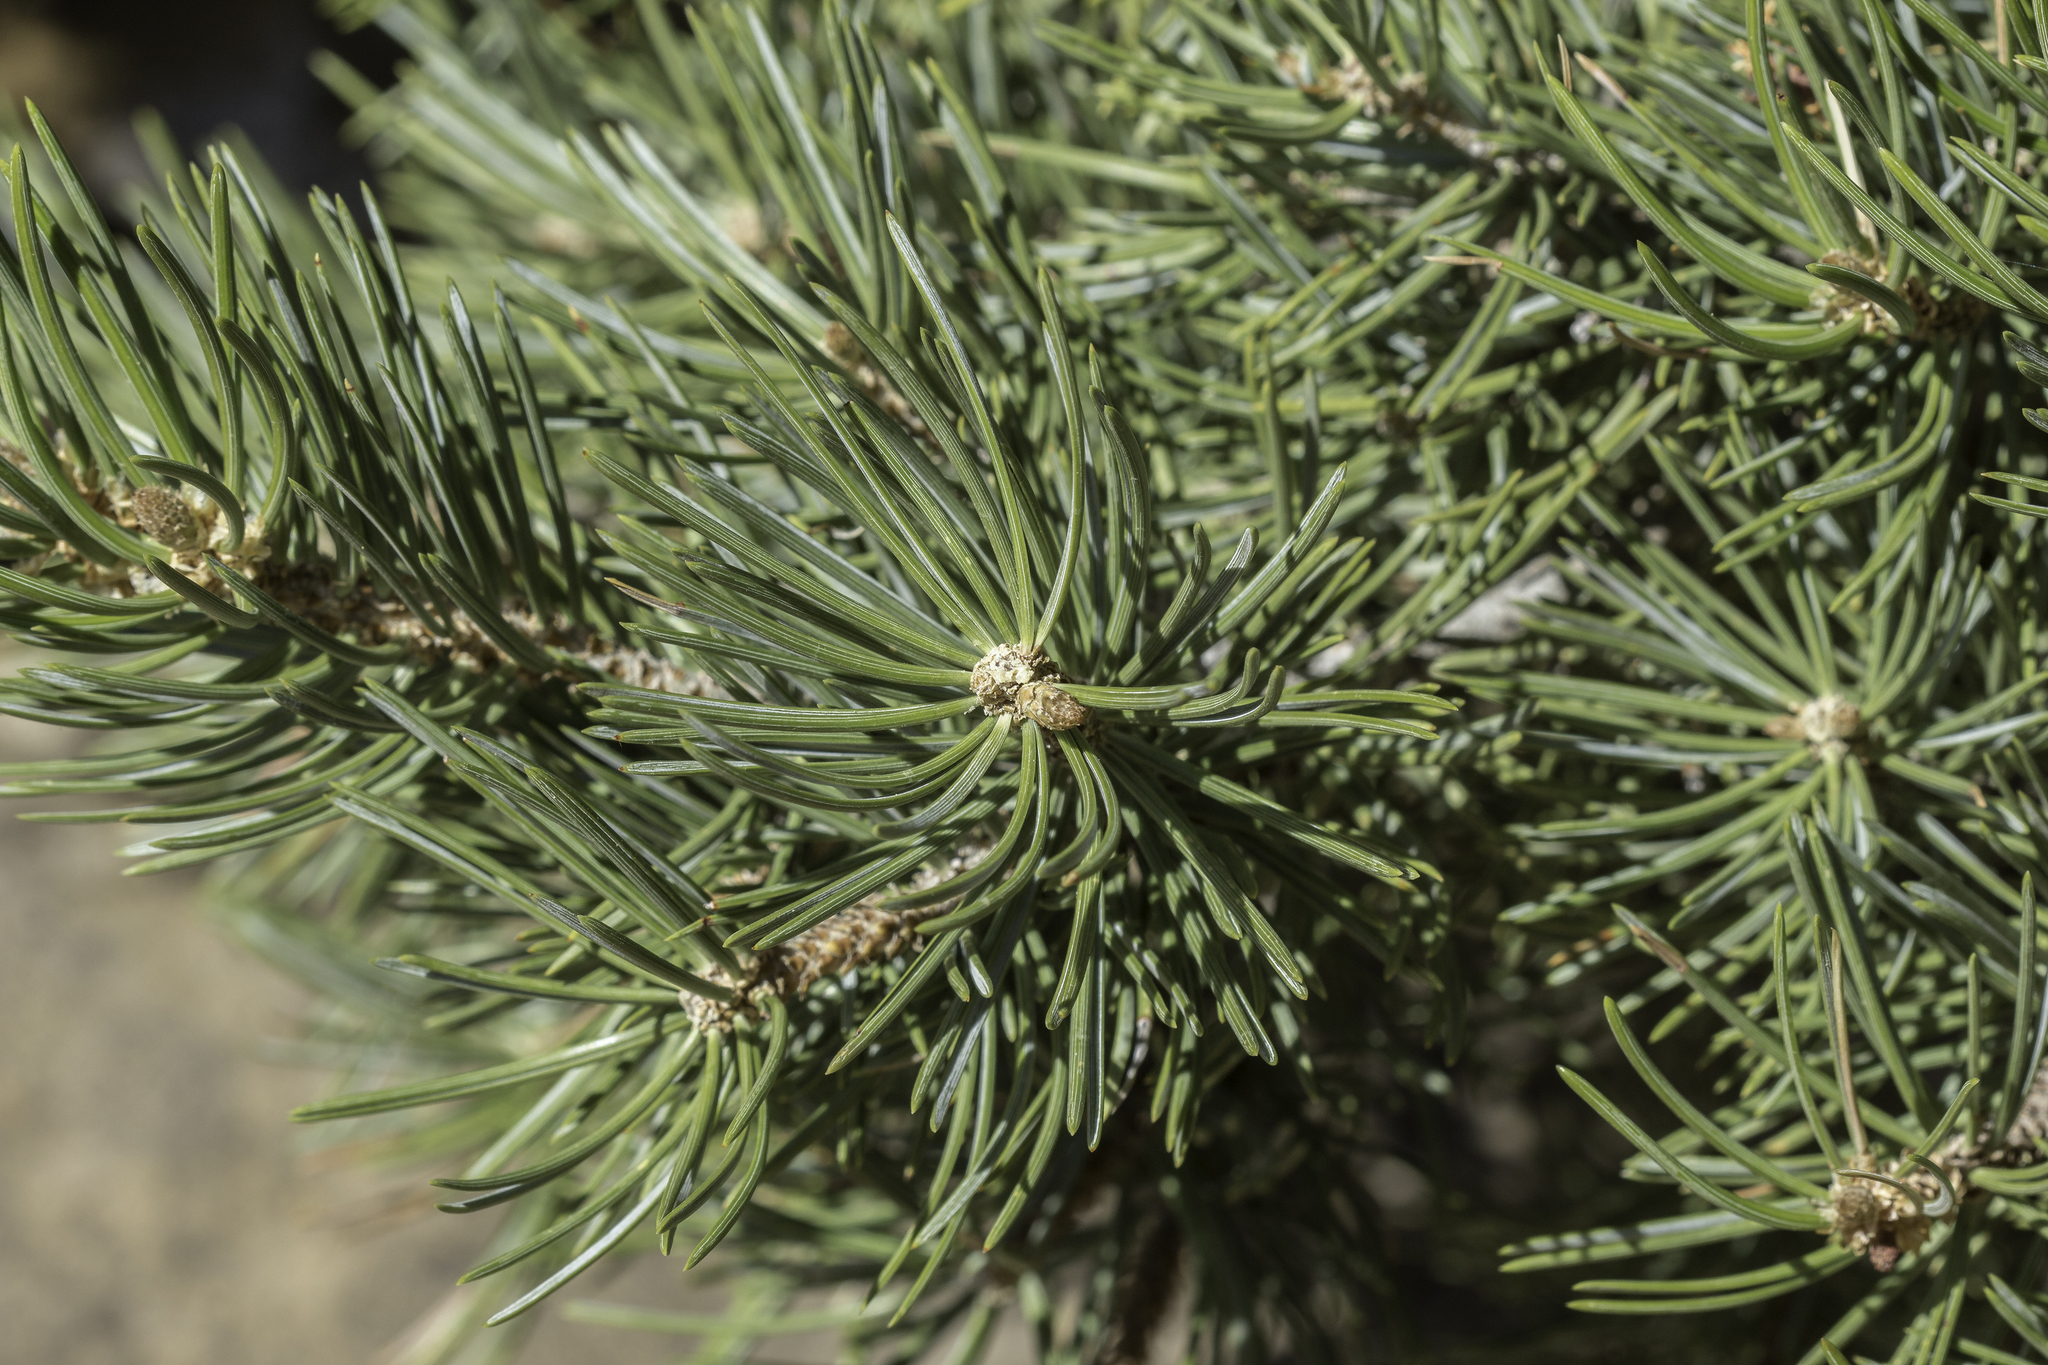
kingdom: Plantae
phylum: Tracheophyta
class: Pinopsida
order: Pinales
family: Pinaceae
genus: Pinus
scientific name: Pinus edulis
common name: Colorado pinyon
